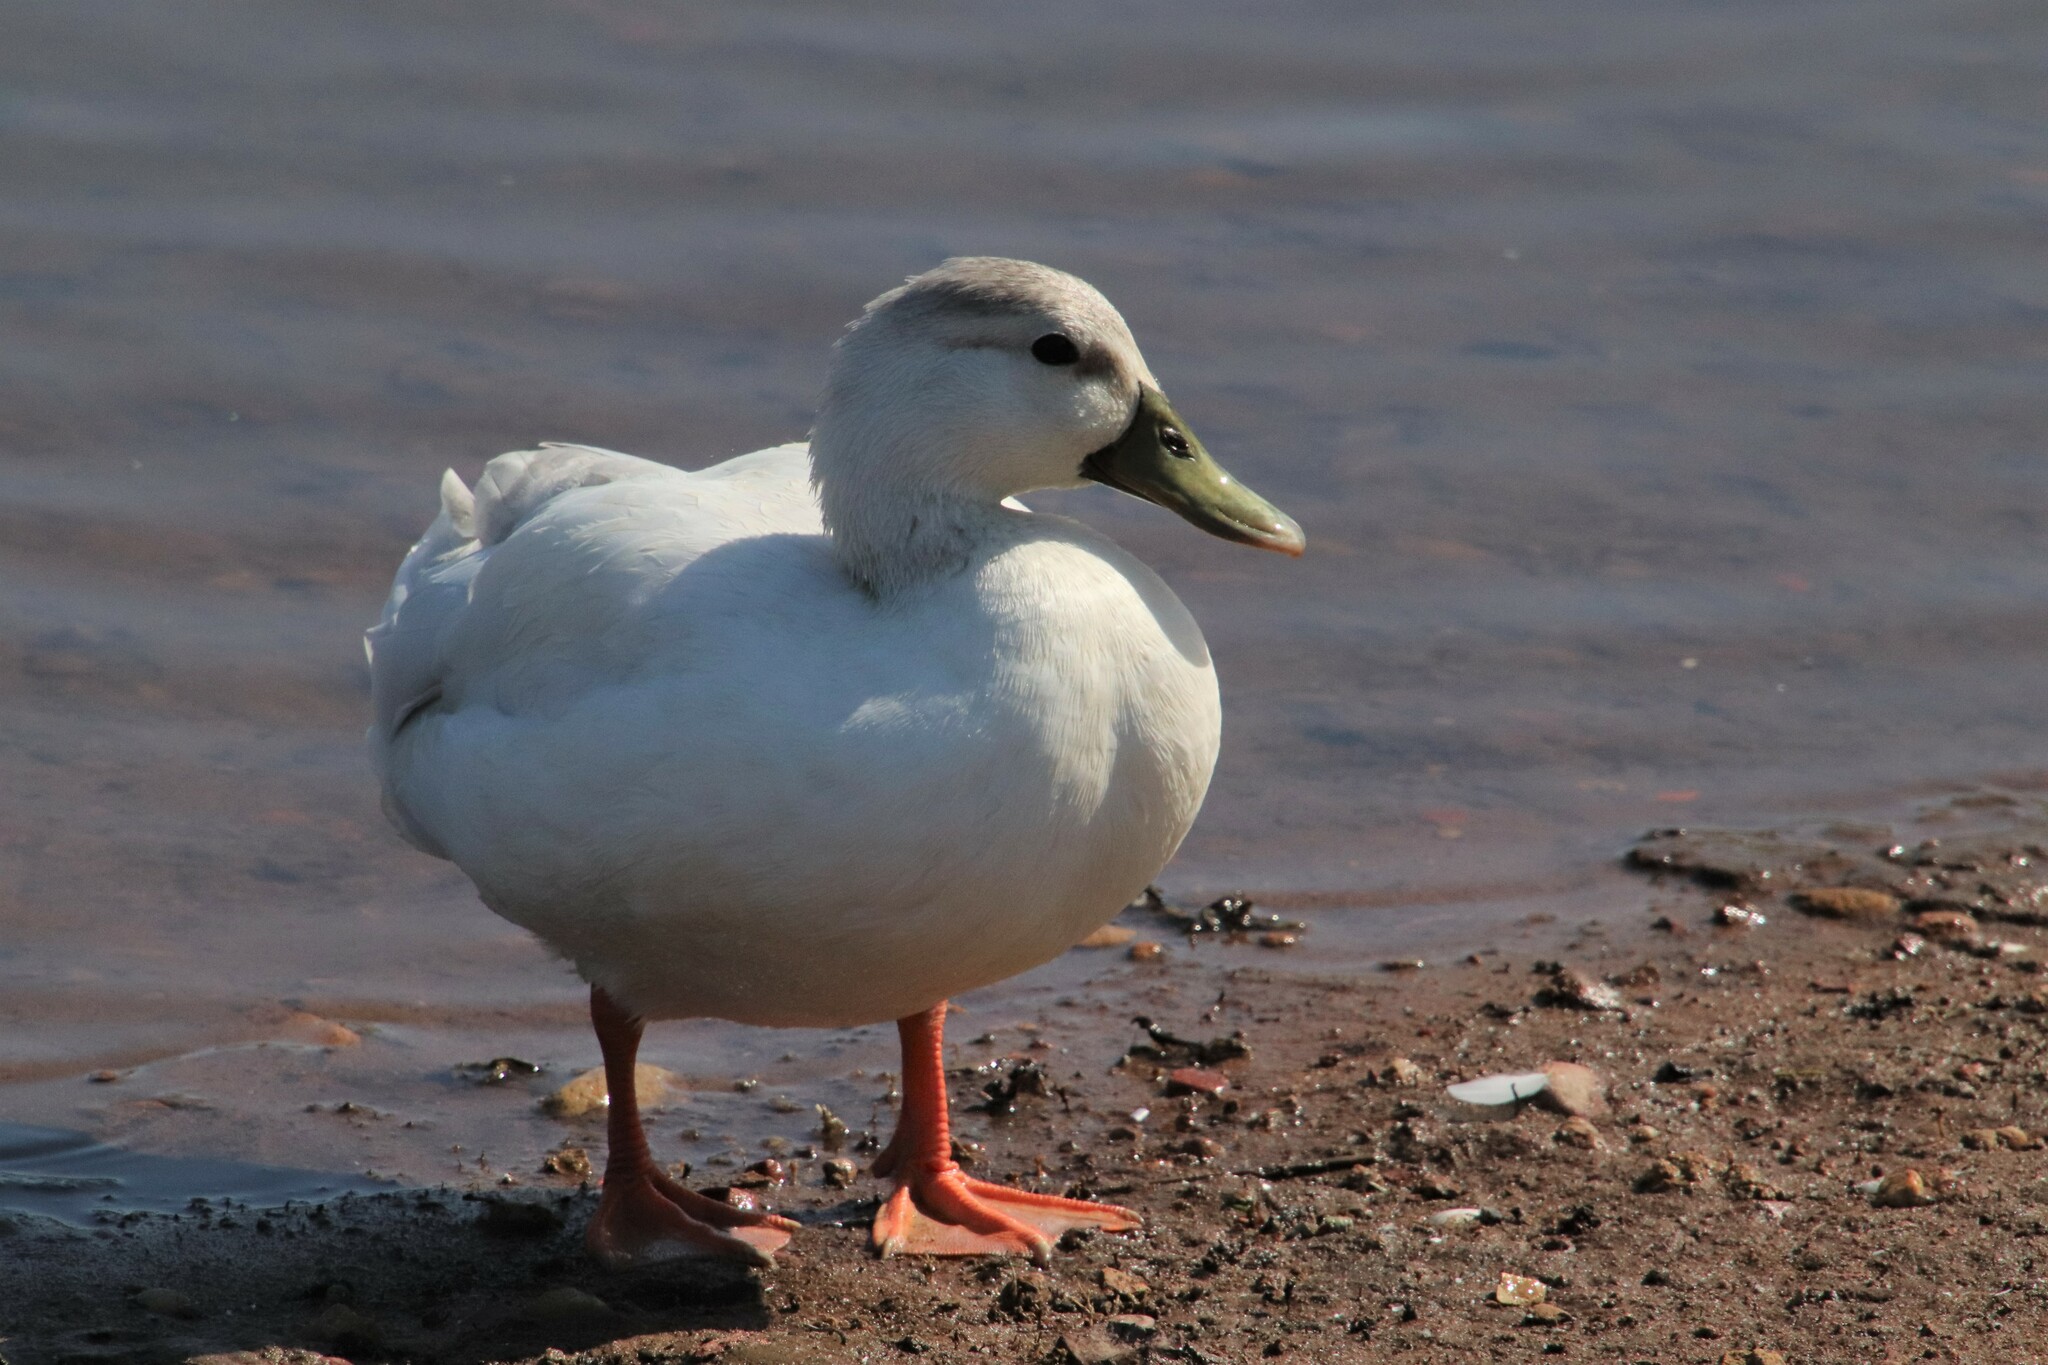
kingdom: Animalia
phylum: Chordata
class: Aves
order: Anseriformes
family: Anatidae
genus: Anas
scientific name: Anas platyrhynchos
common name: Mallard
